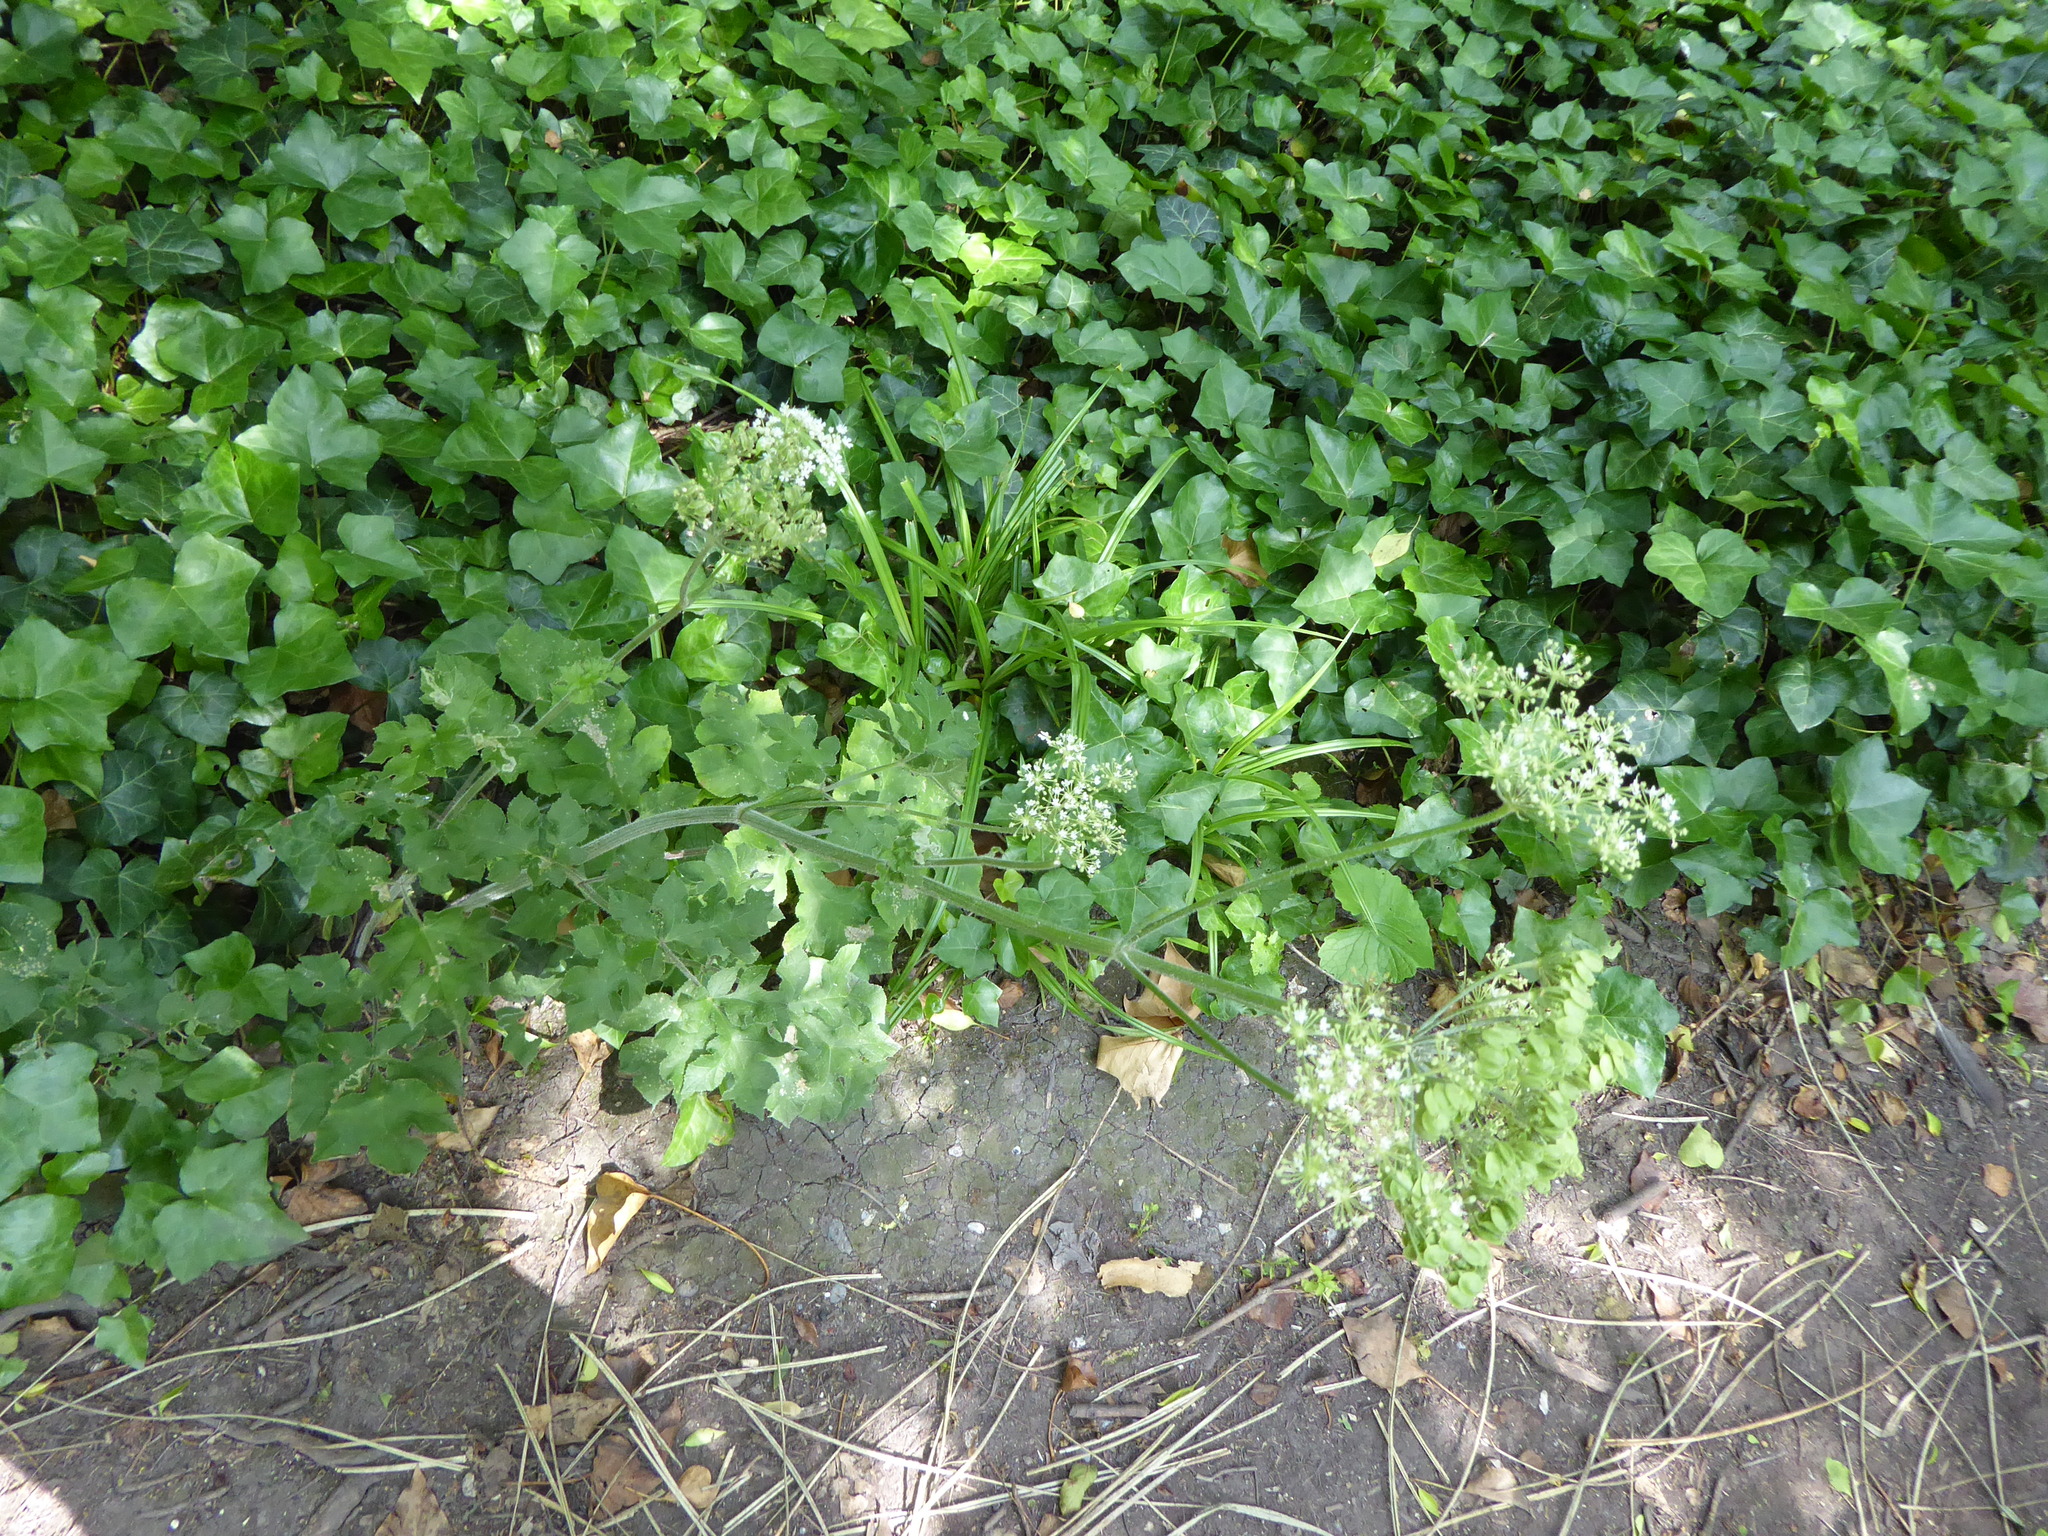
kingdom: Plantae
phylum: Tracheophyta
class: Magnoliopsida
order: Apiales
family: Apiaceae
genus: Heracleum
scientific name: Heracleum sphondylium
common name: Hogweed
